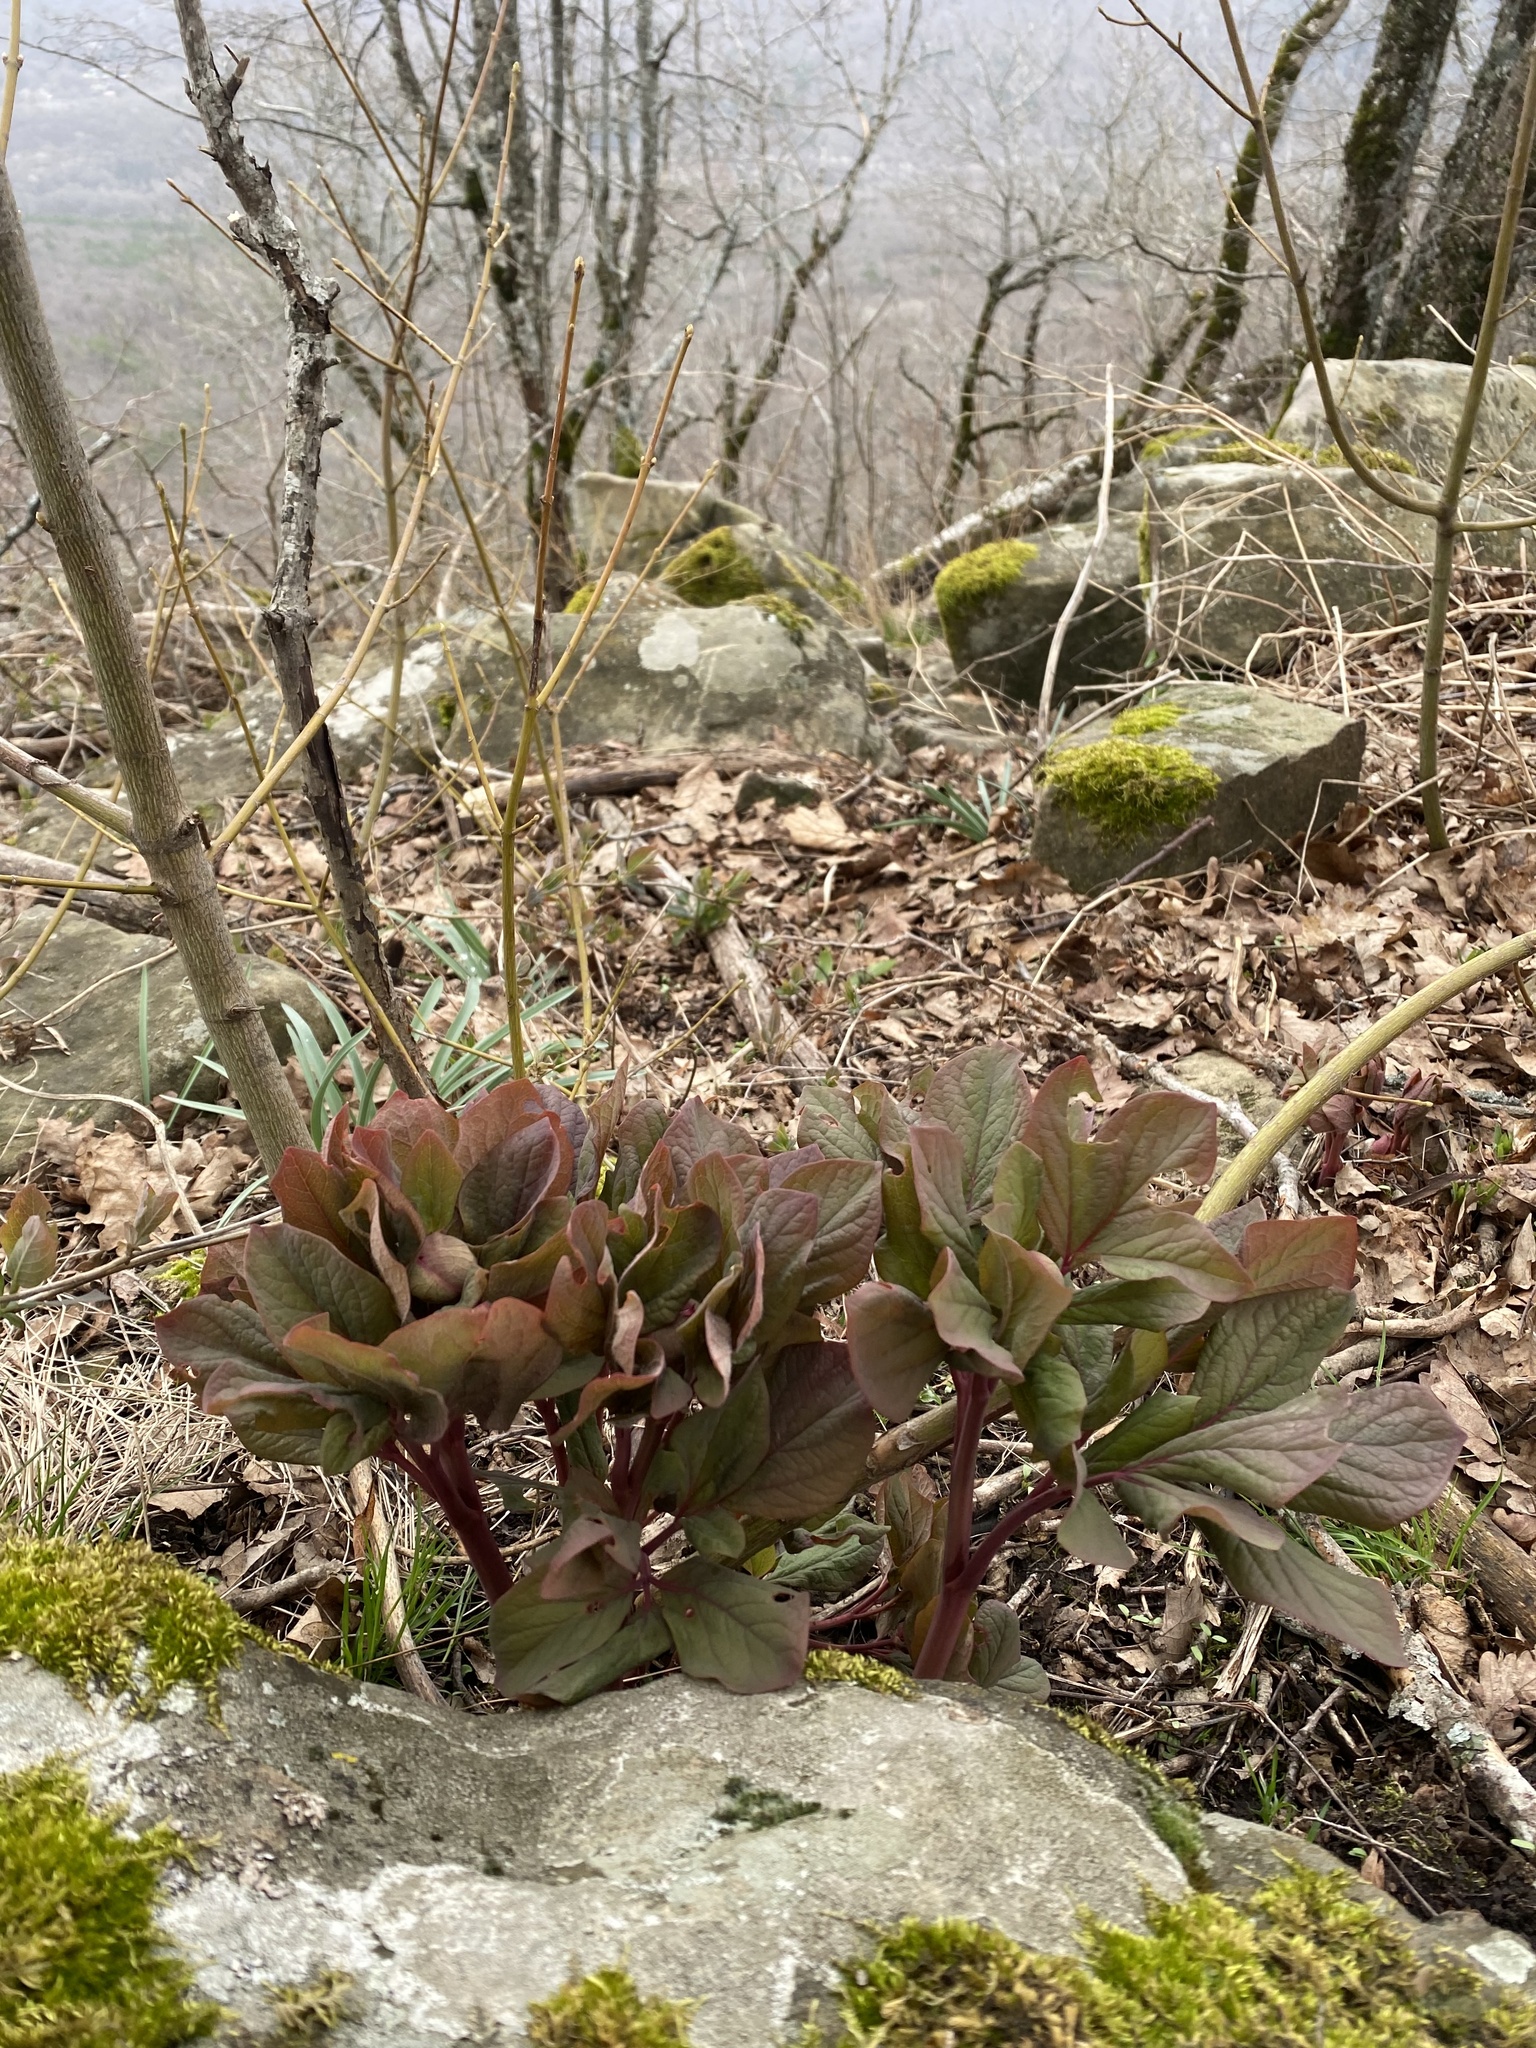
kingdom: Plantae
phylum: Tracheophyta
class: Magnoliopsida
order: Saxifragales
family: Paeoniaceae
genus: Paeonia
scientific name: Paeonia caucasica
